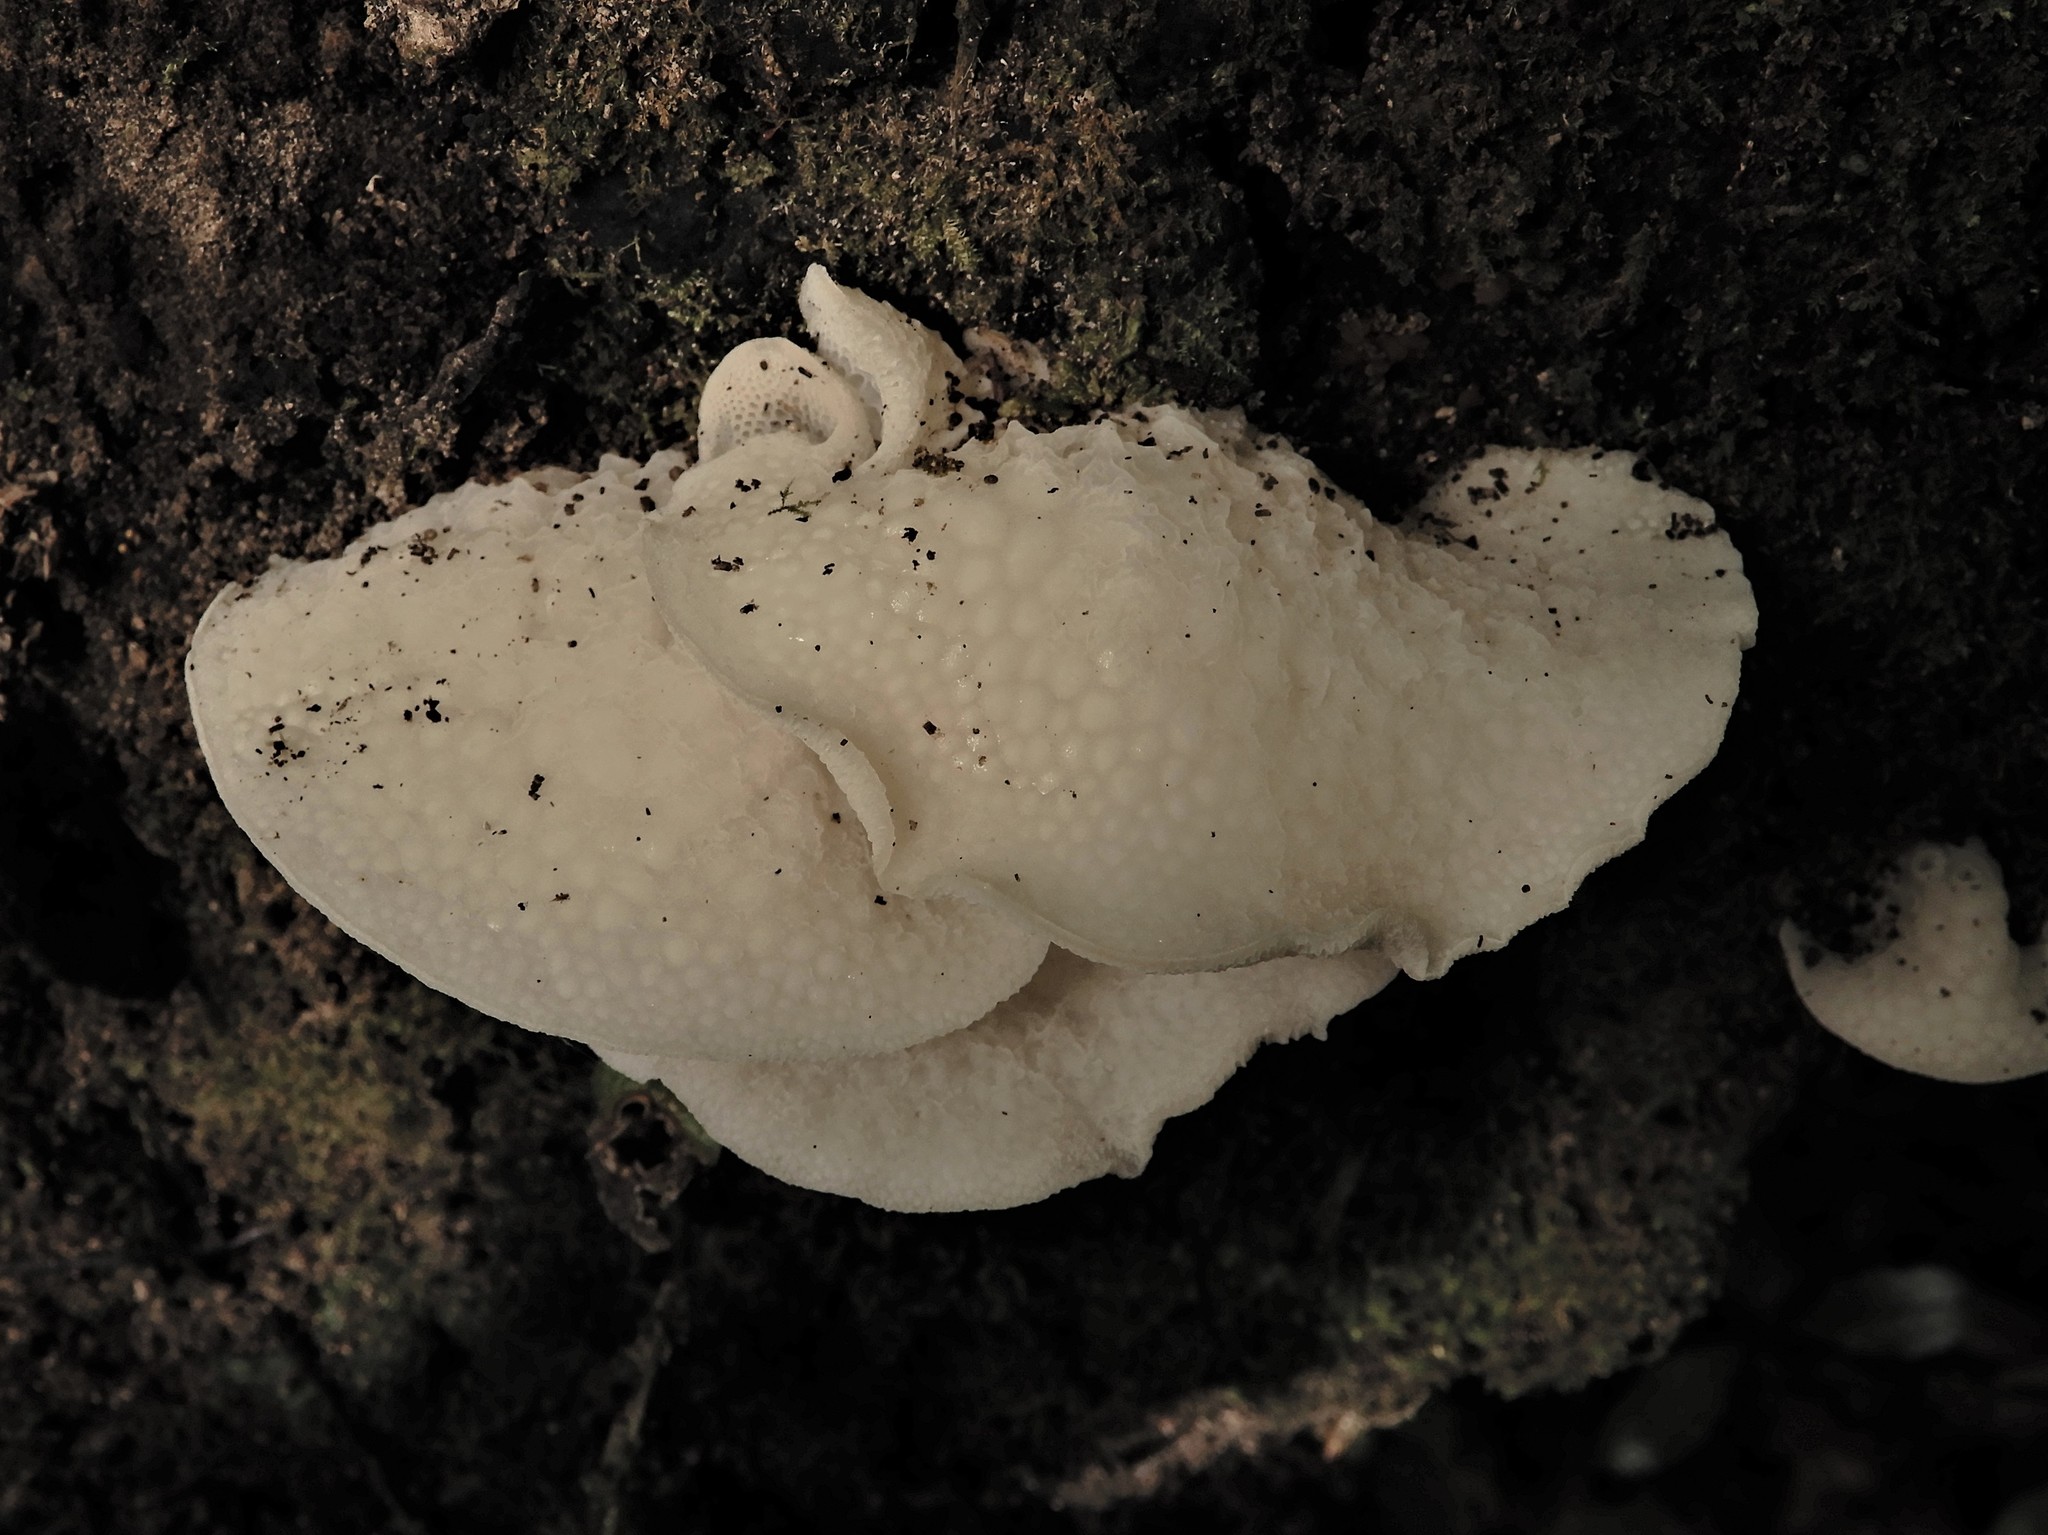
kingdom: Fungi
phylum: Basidiomycota
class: Agaricomycetes
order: Agaricales
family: Mycenaceae
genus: Favolaschia
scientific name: Favolaschia pustulosa
